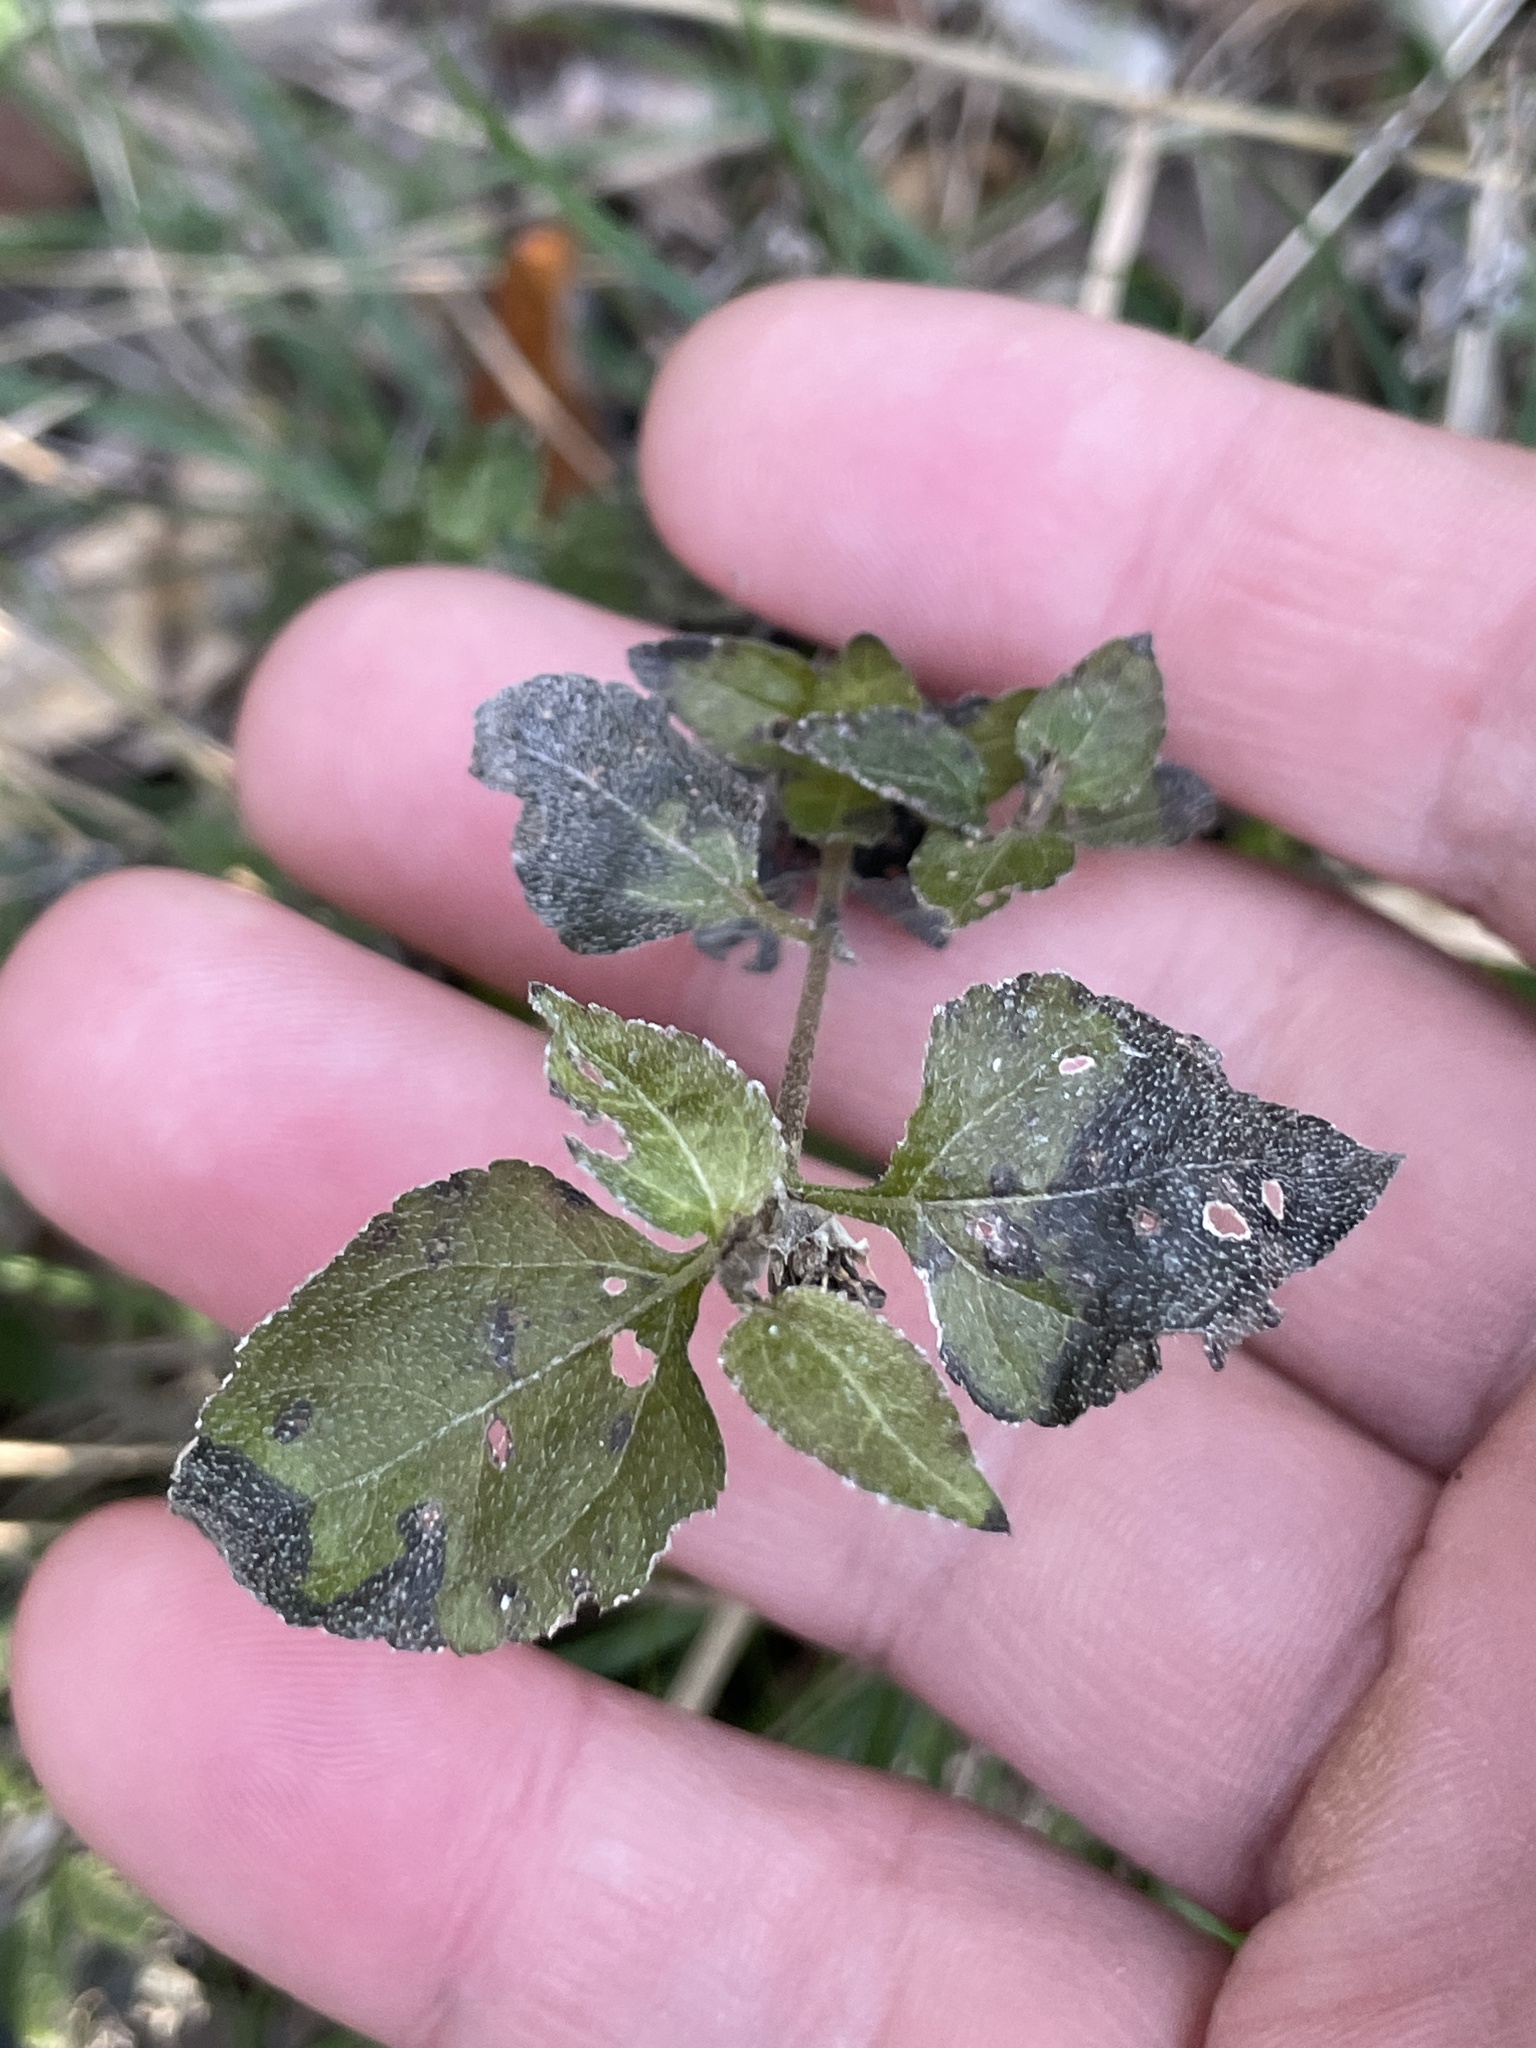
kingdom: Plantae
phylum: Tracheophyta
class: Magnoliopsida
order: Asterales
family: Asteraceae
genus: Calyptocarpus
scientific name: Calyptocarpus vialis
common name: Straggler daisy
